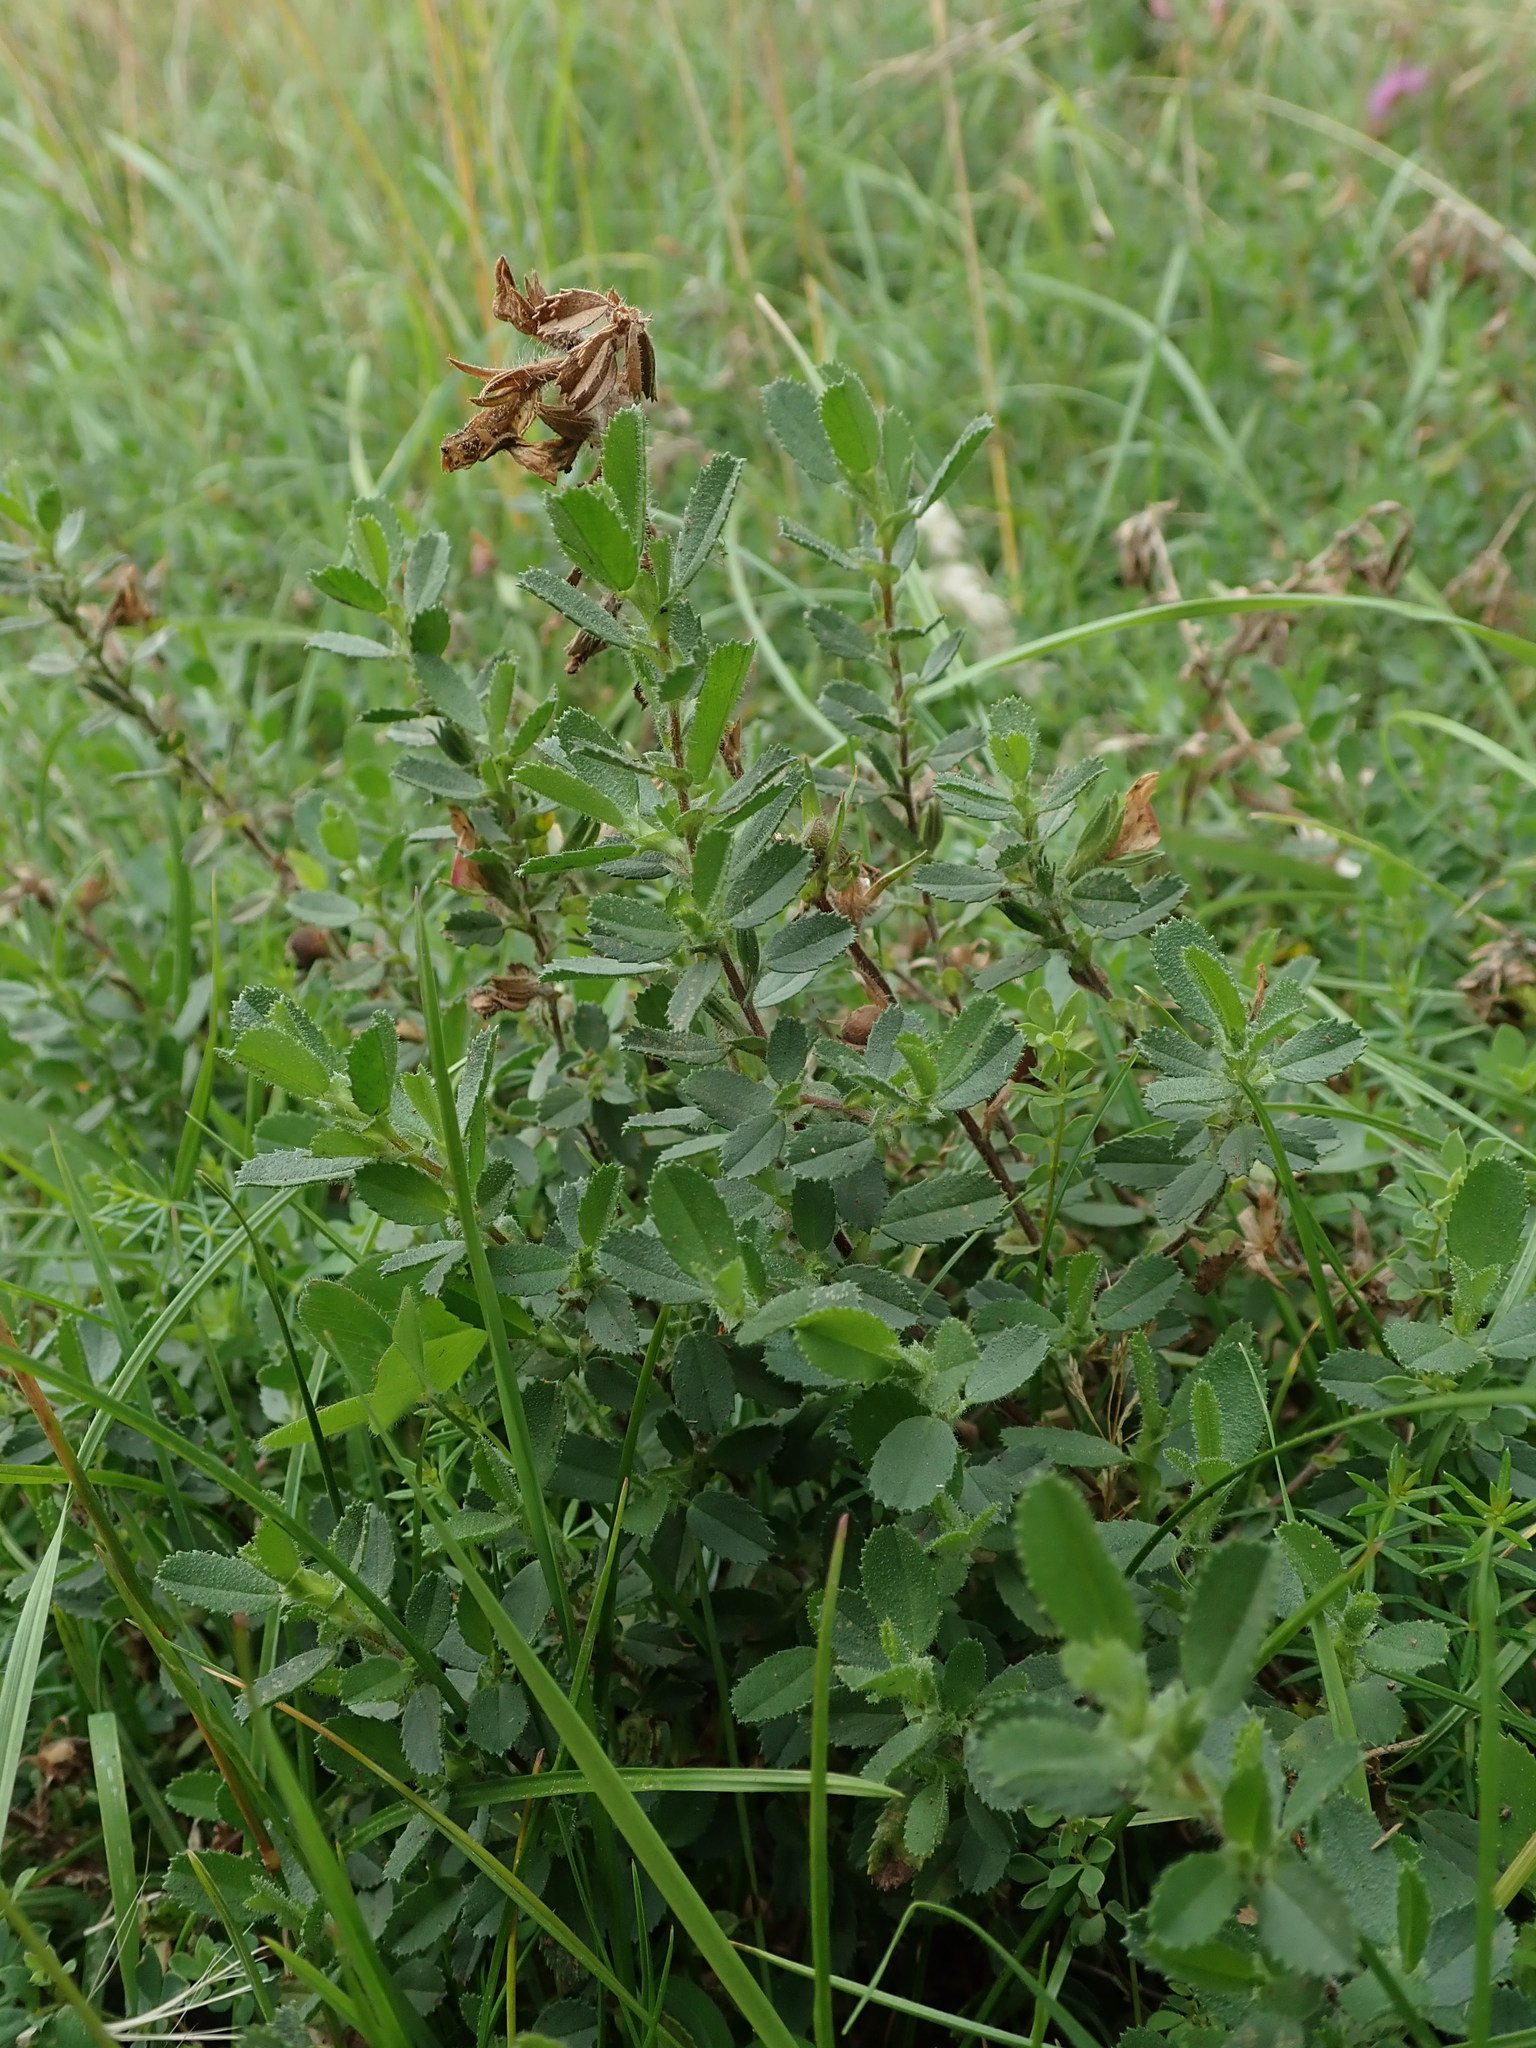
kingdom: Plantae
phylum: Tracheophyta
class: Magnoliopsida
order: Fabales
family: Fabaceae
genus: Ononis
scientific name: Ononis spinosa
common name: Spiny restharrow
